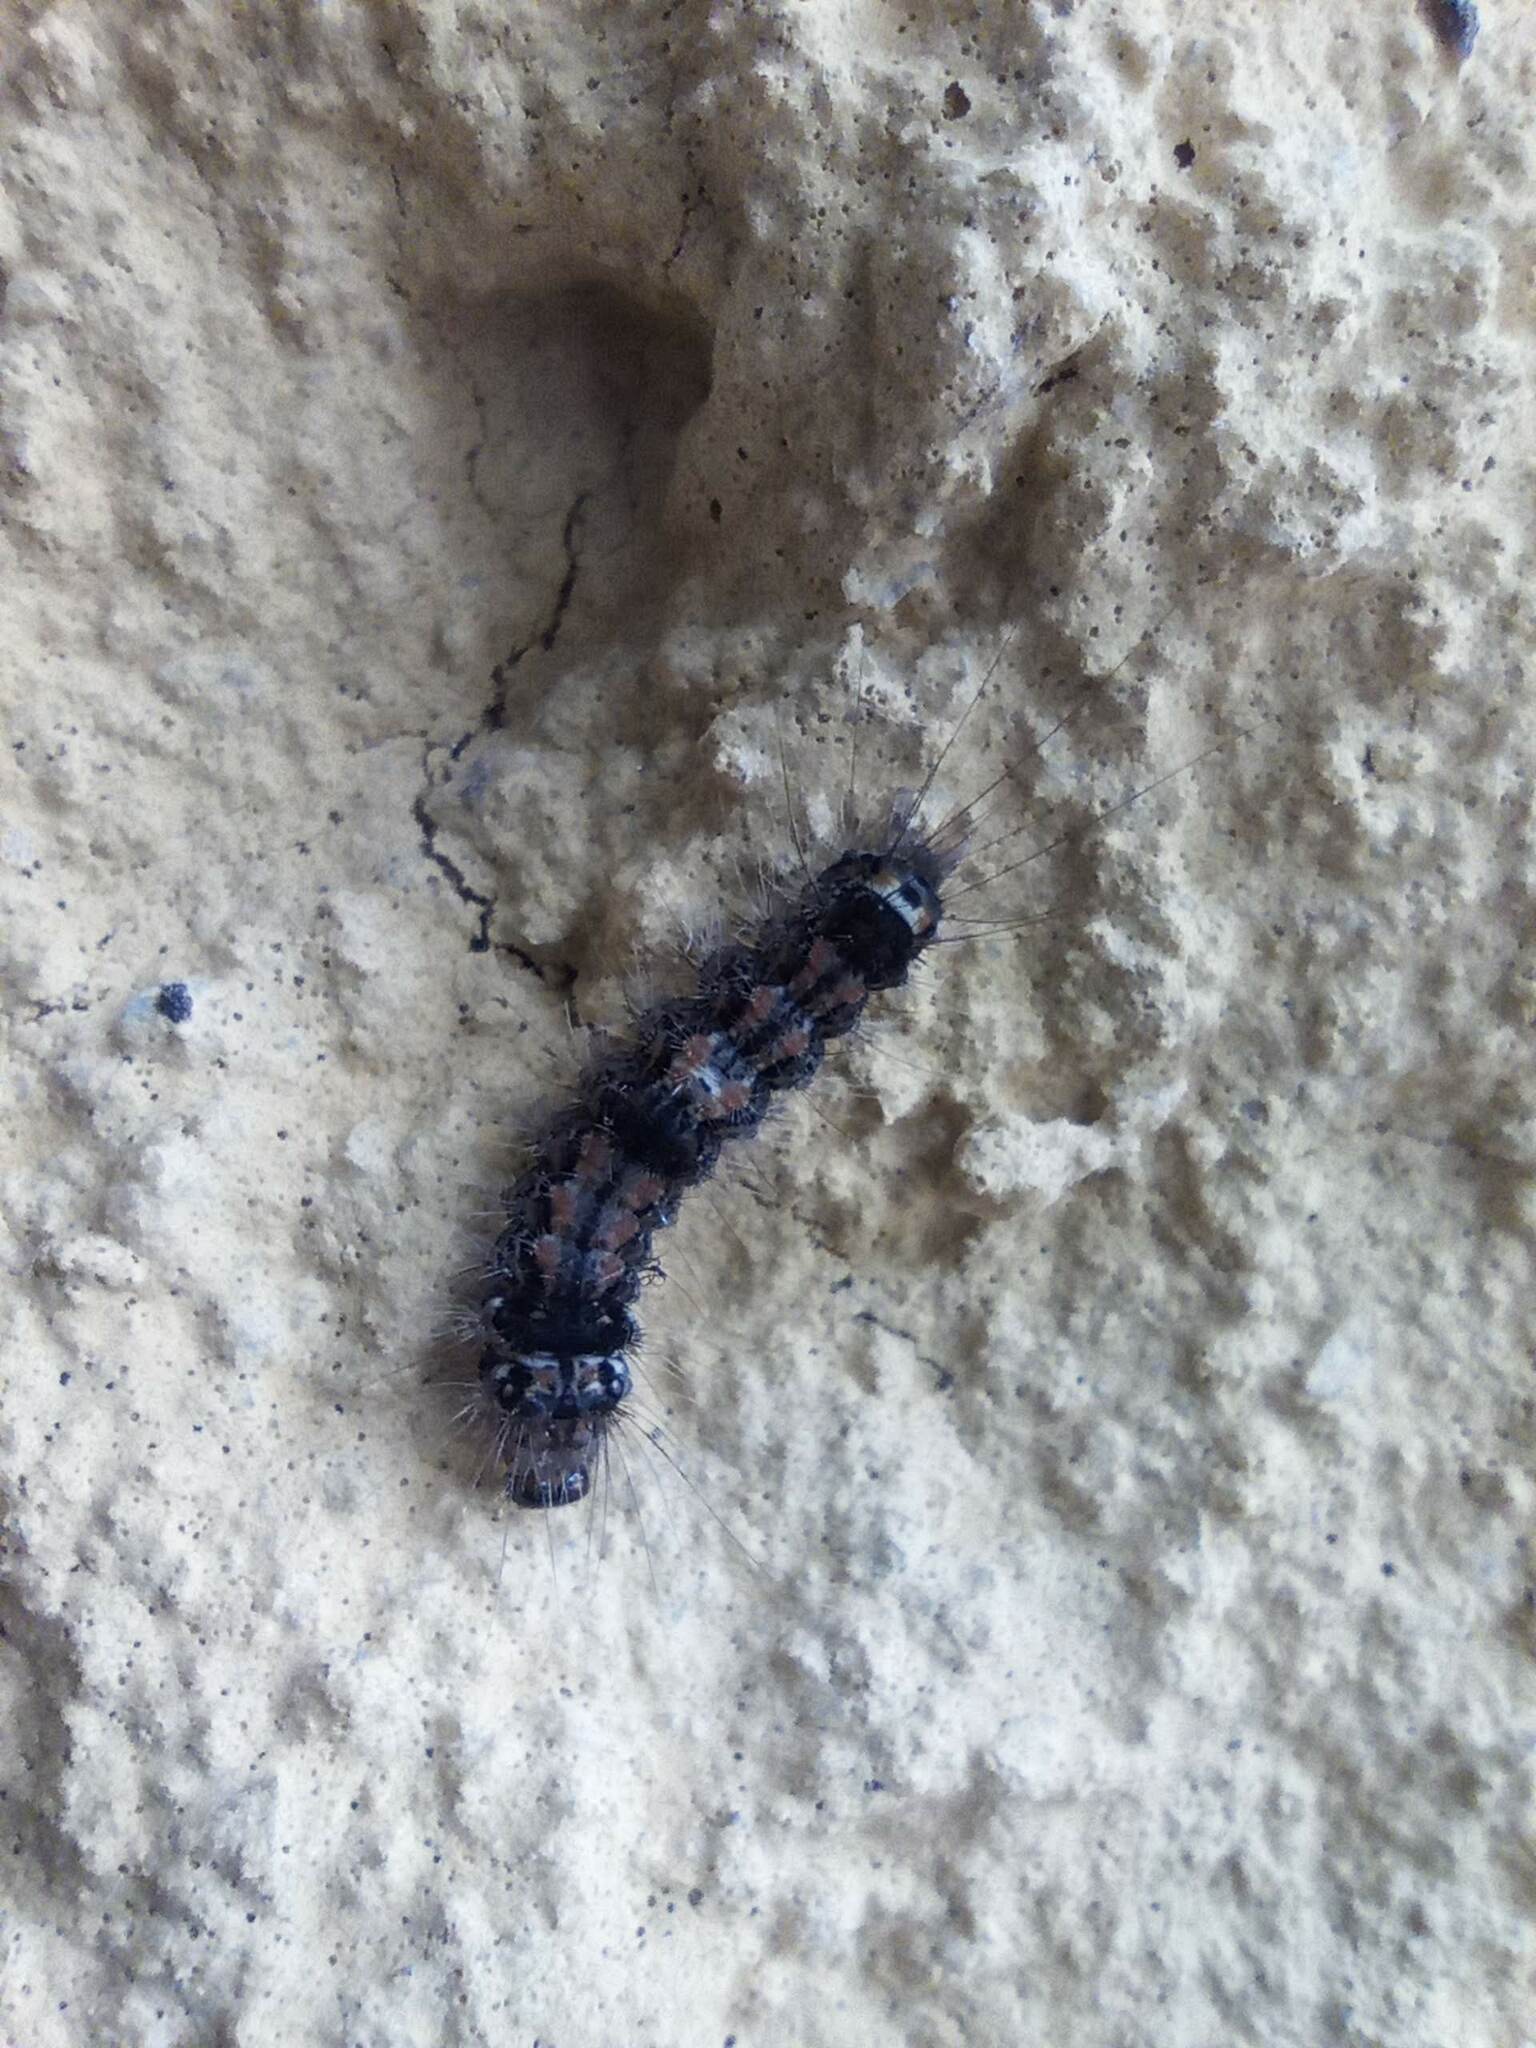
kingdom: Animalia
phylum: Arthropoda
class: Insecta
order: Lepidoptera
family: Erebidae
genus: Wittia
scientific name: Wittia sororcula
